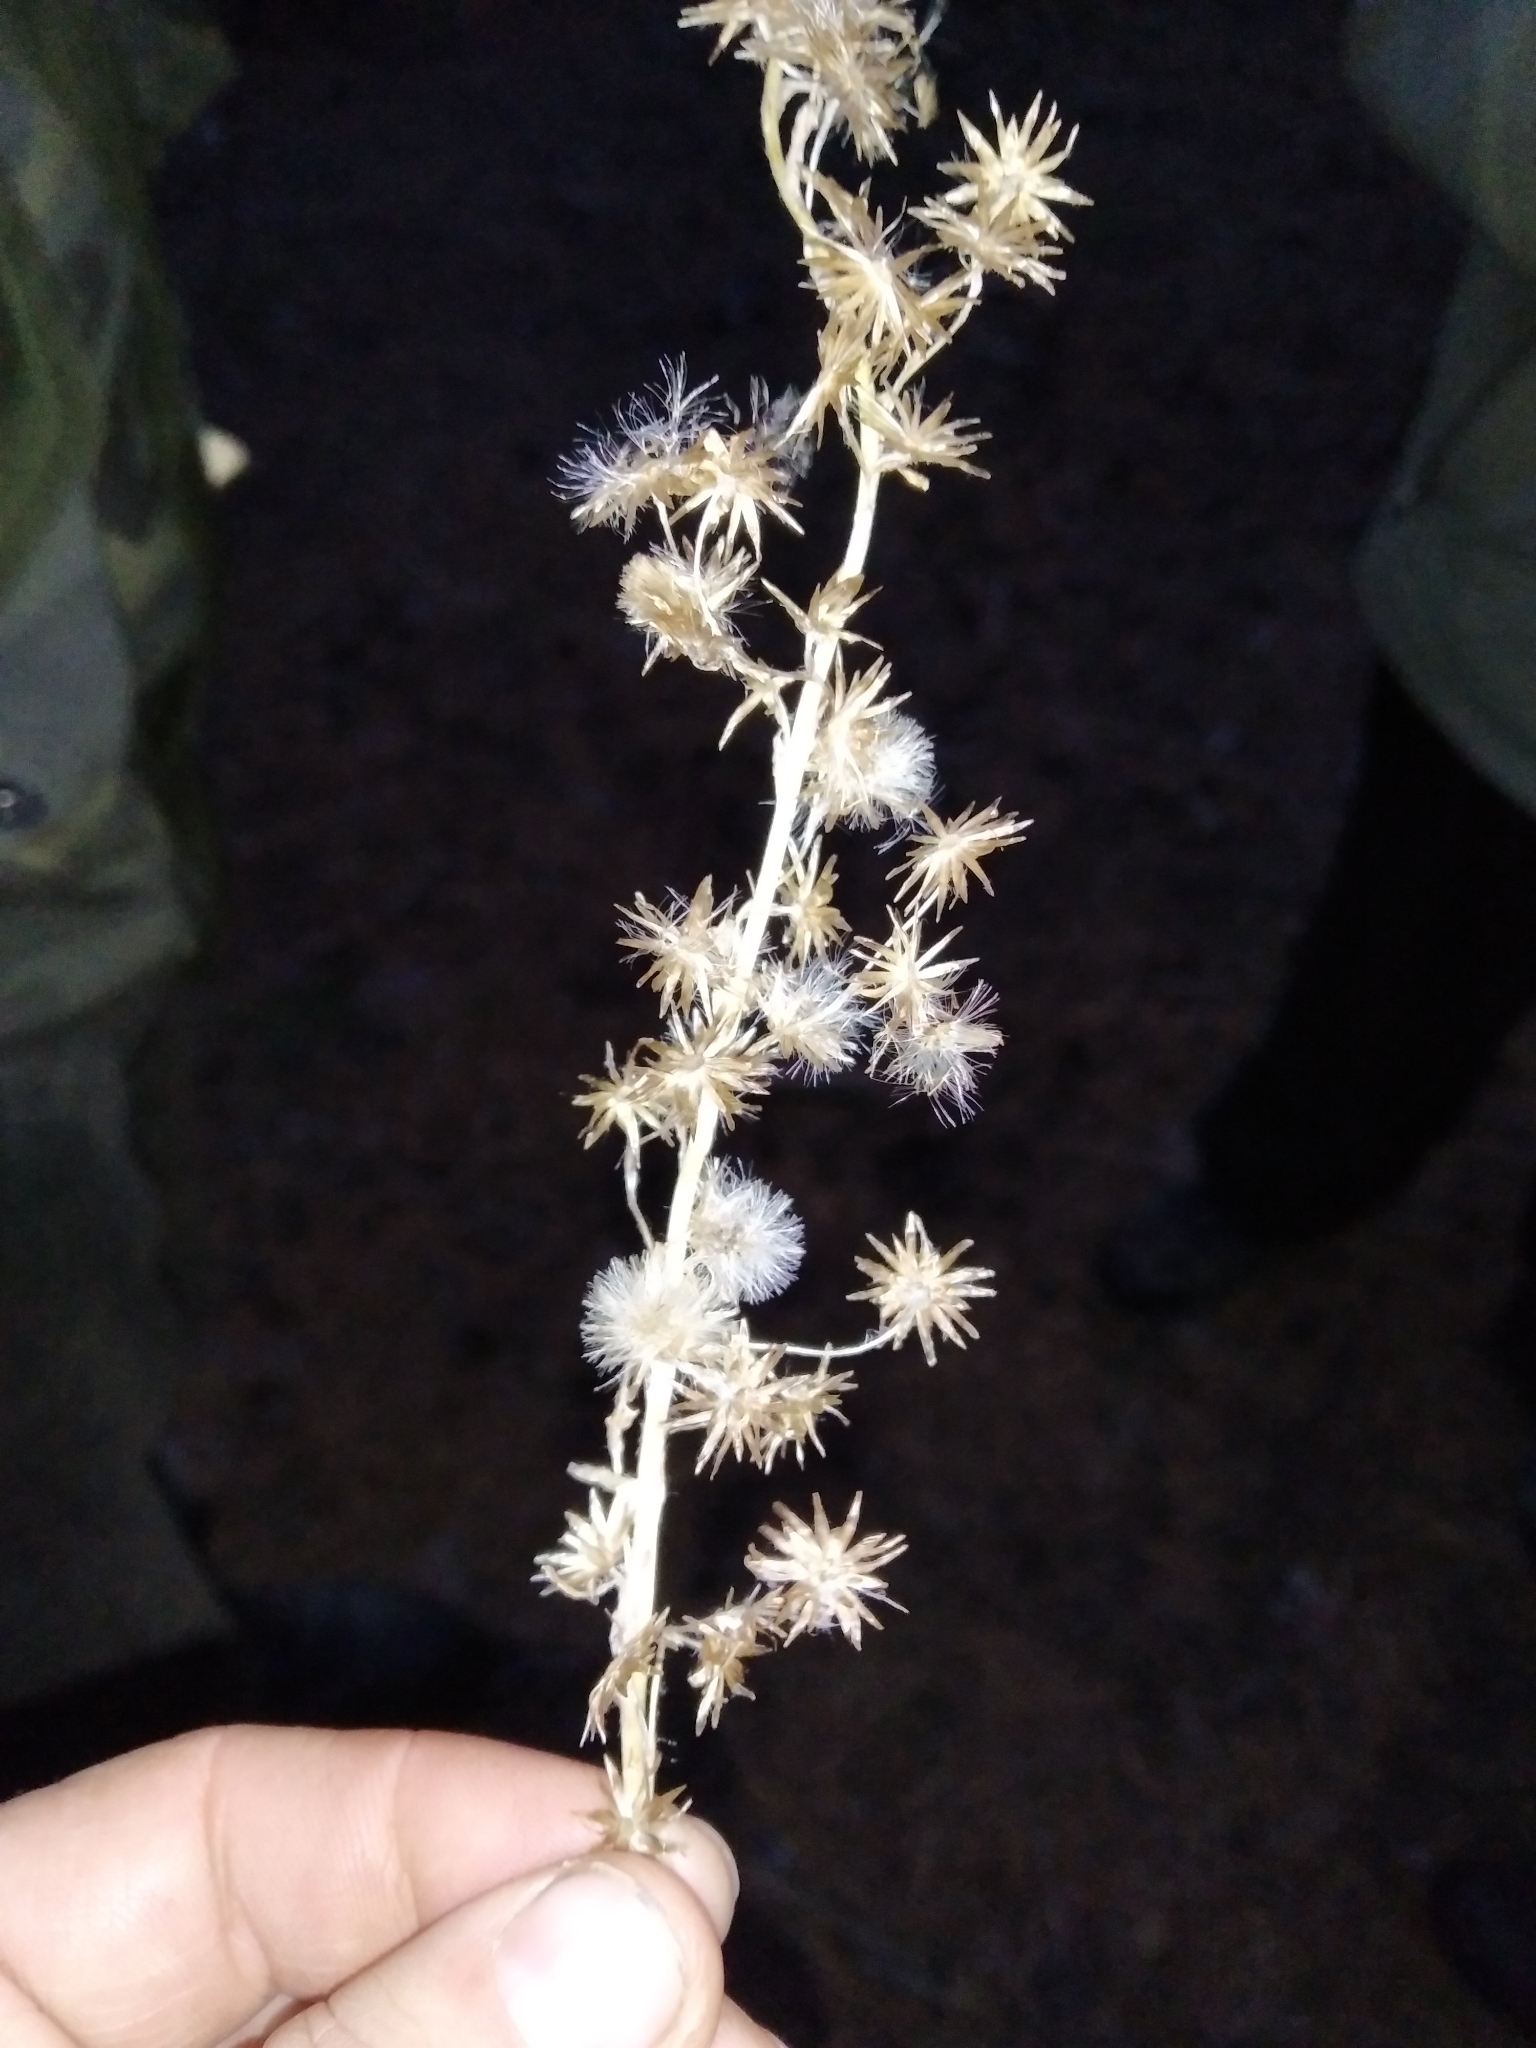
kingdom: Plantae
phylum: Tracheophyta
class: Magnoliopsida
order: Asterales
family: Asteraceae
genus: Omalotheca
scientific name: Omalotheca sylvatica
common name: Heath cudweed
